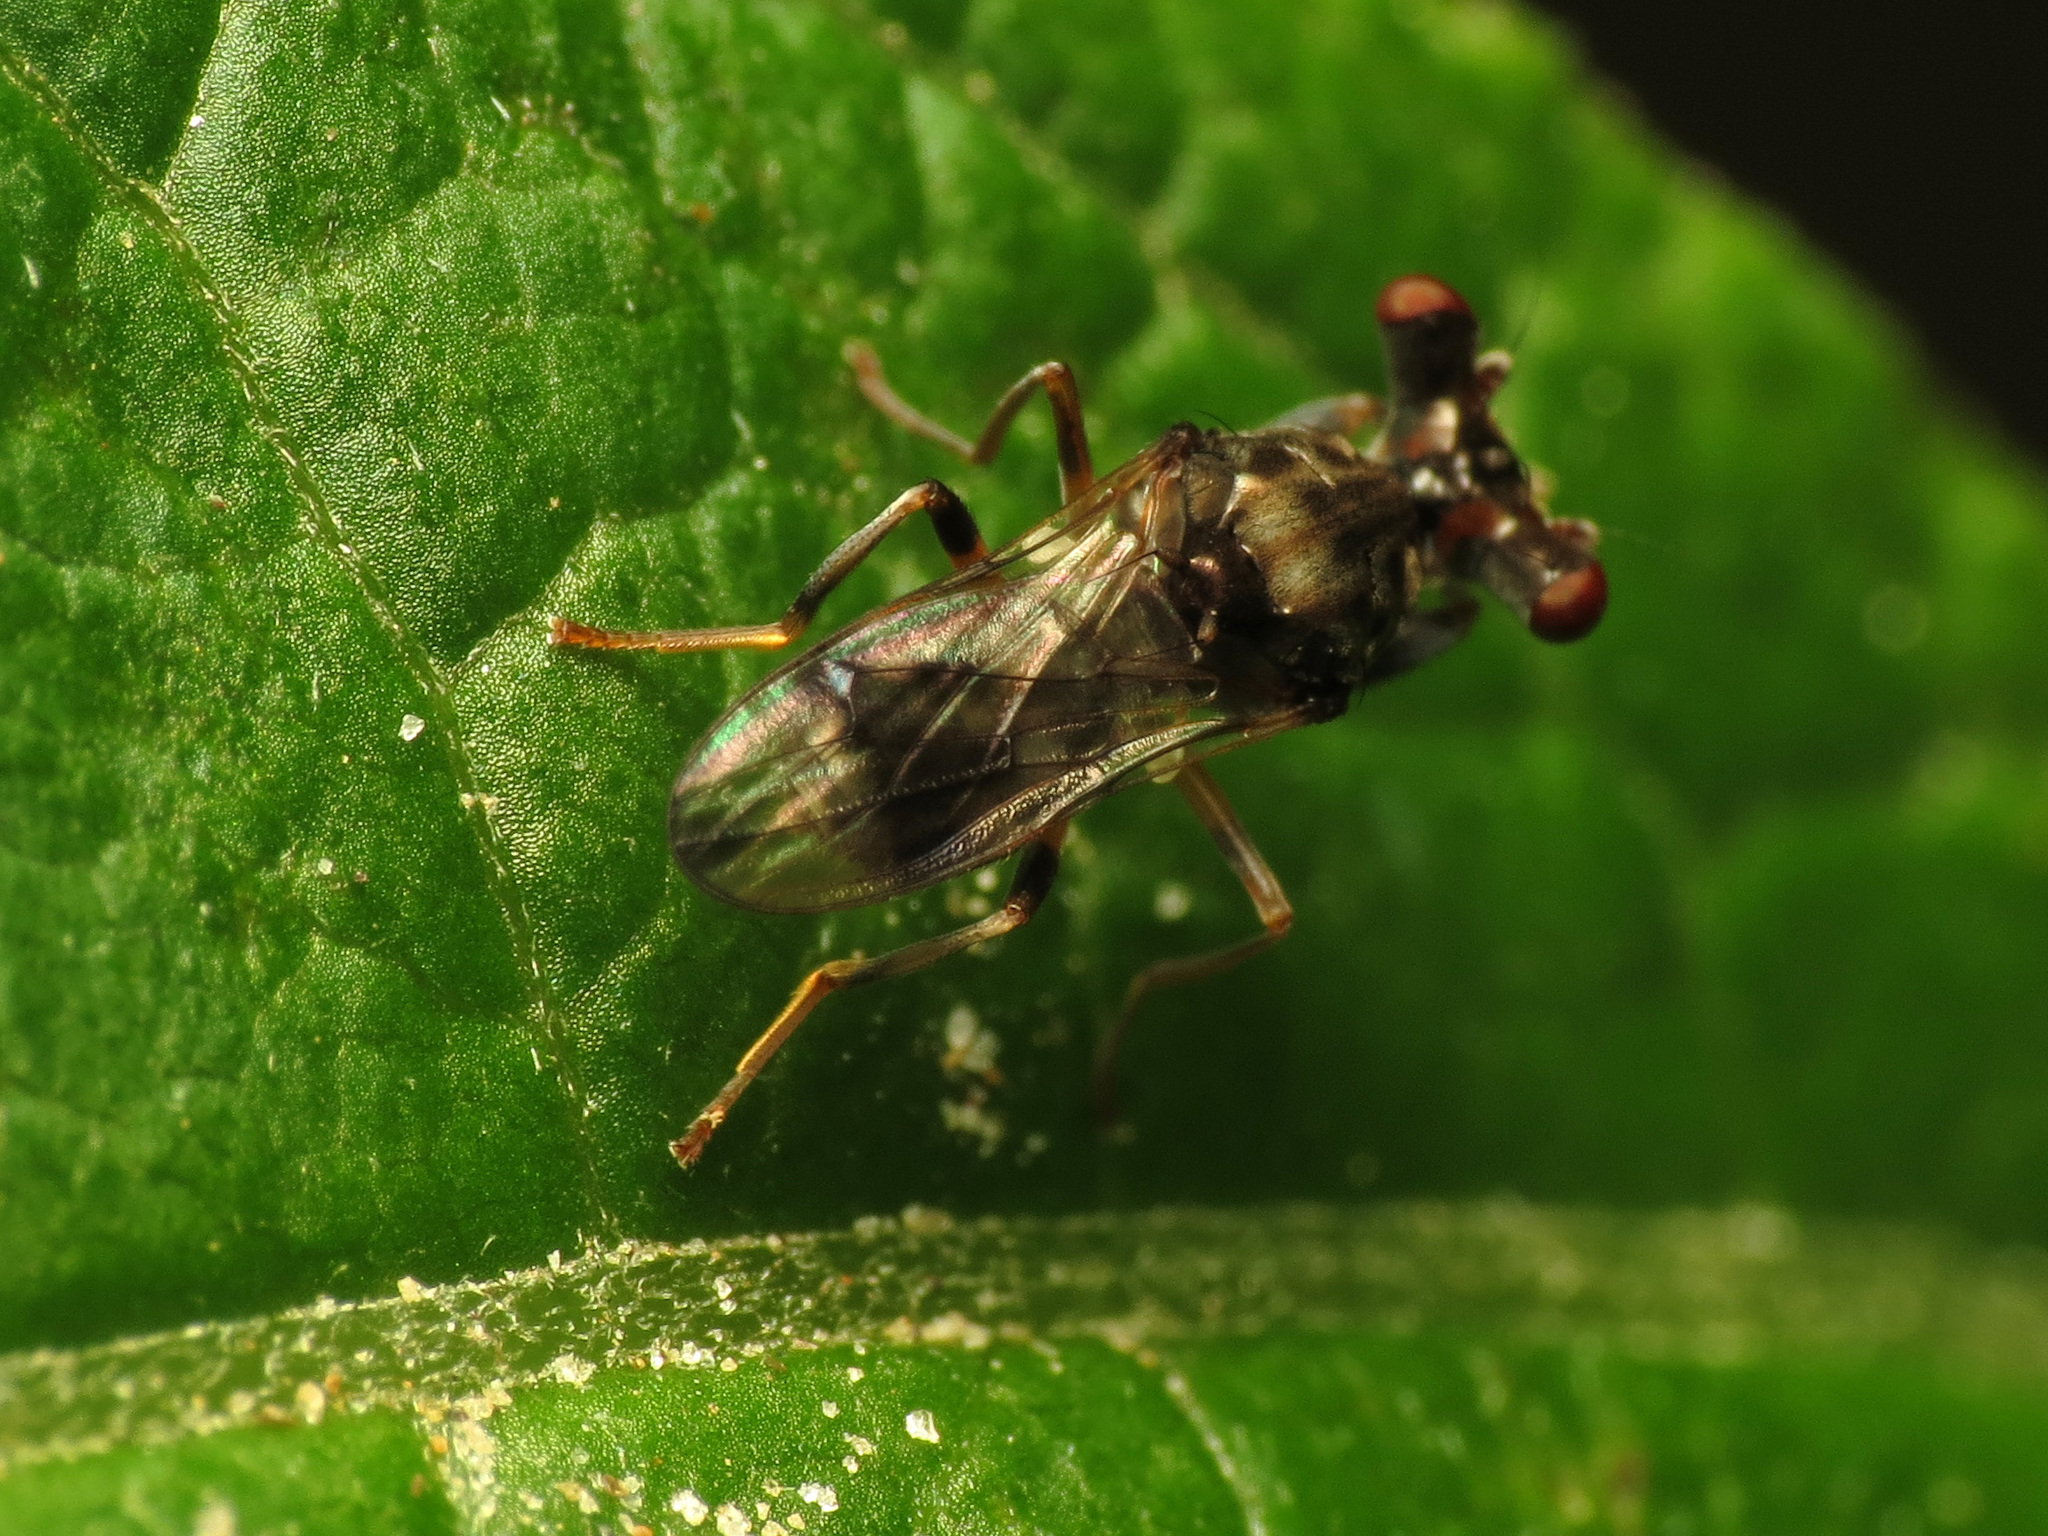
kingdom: Animalia
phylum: Arthropoda
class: Insecta
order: Diptera
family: Diopsidae
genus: Sphyracephala
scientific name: Sphyracephala brevicornis
